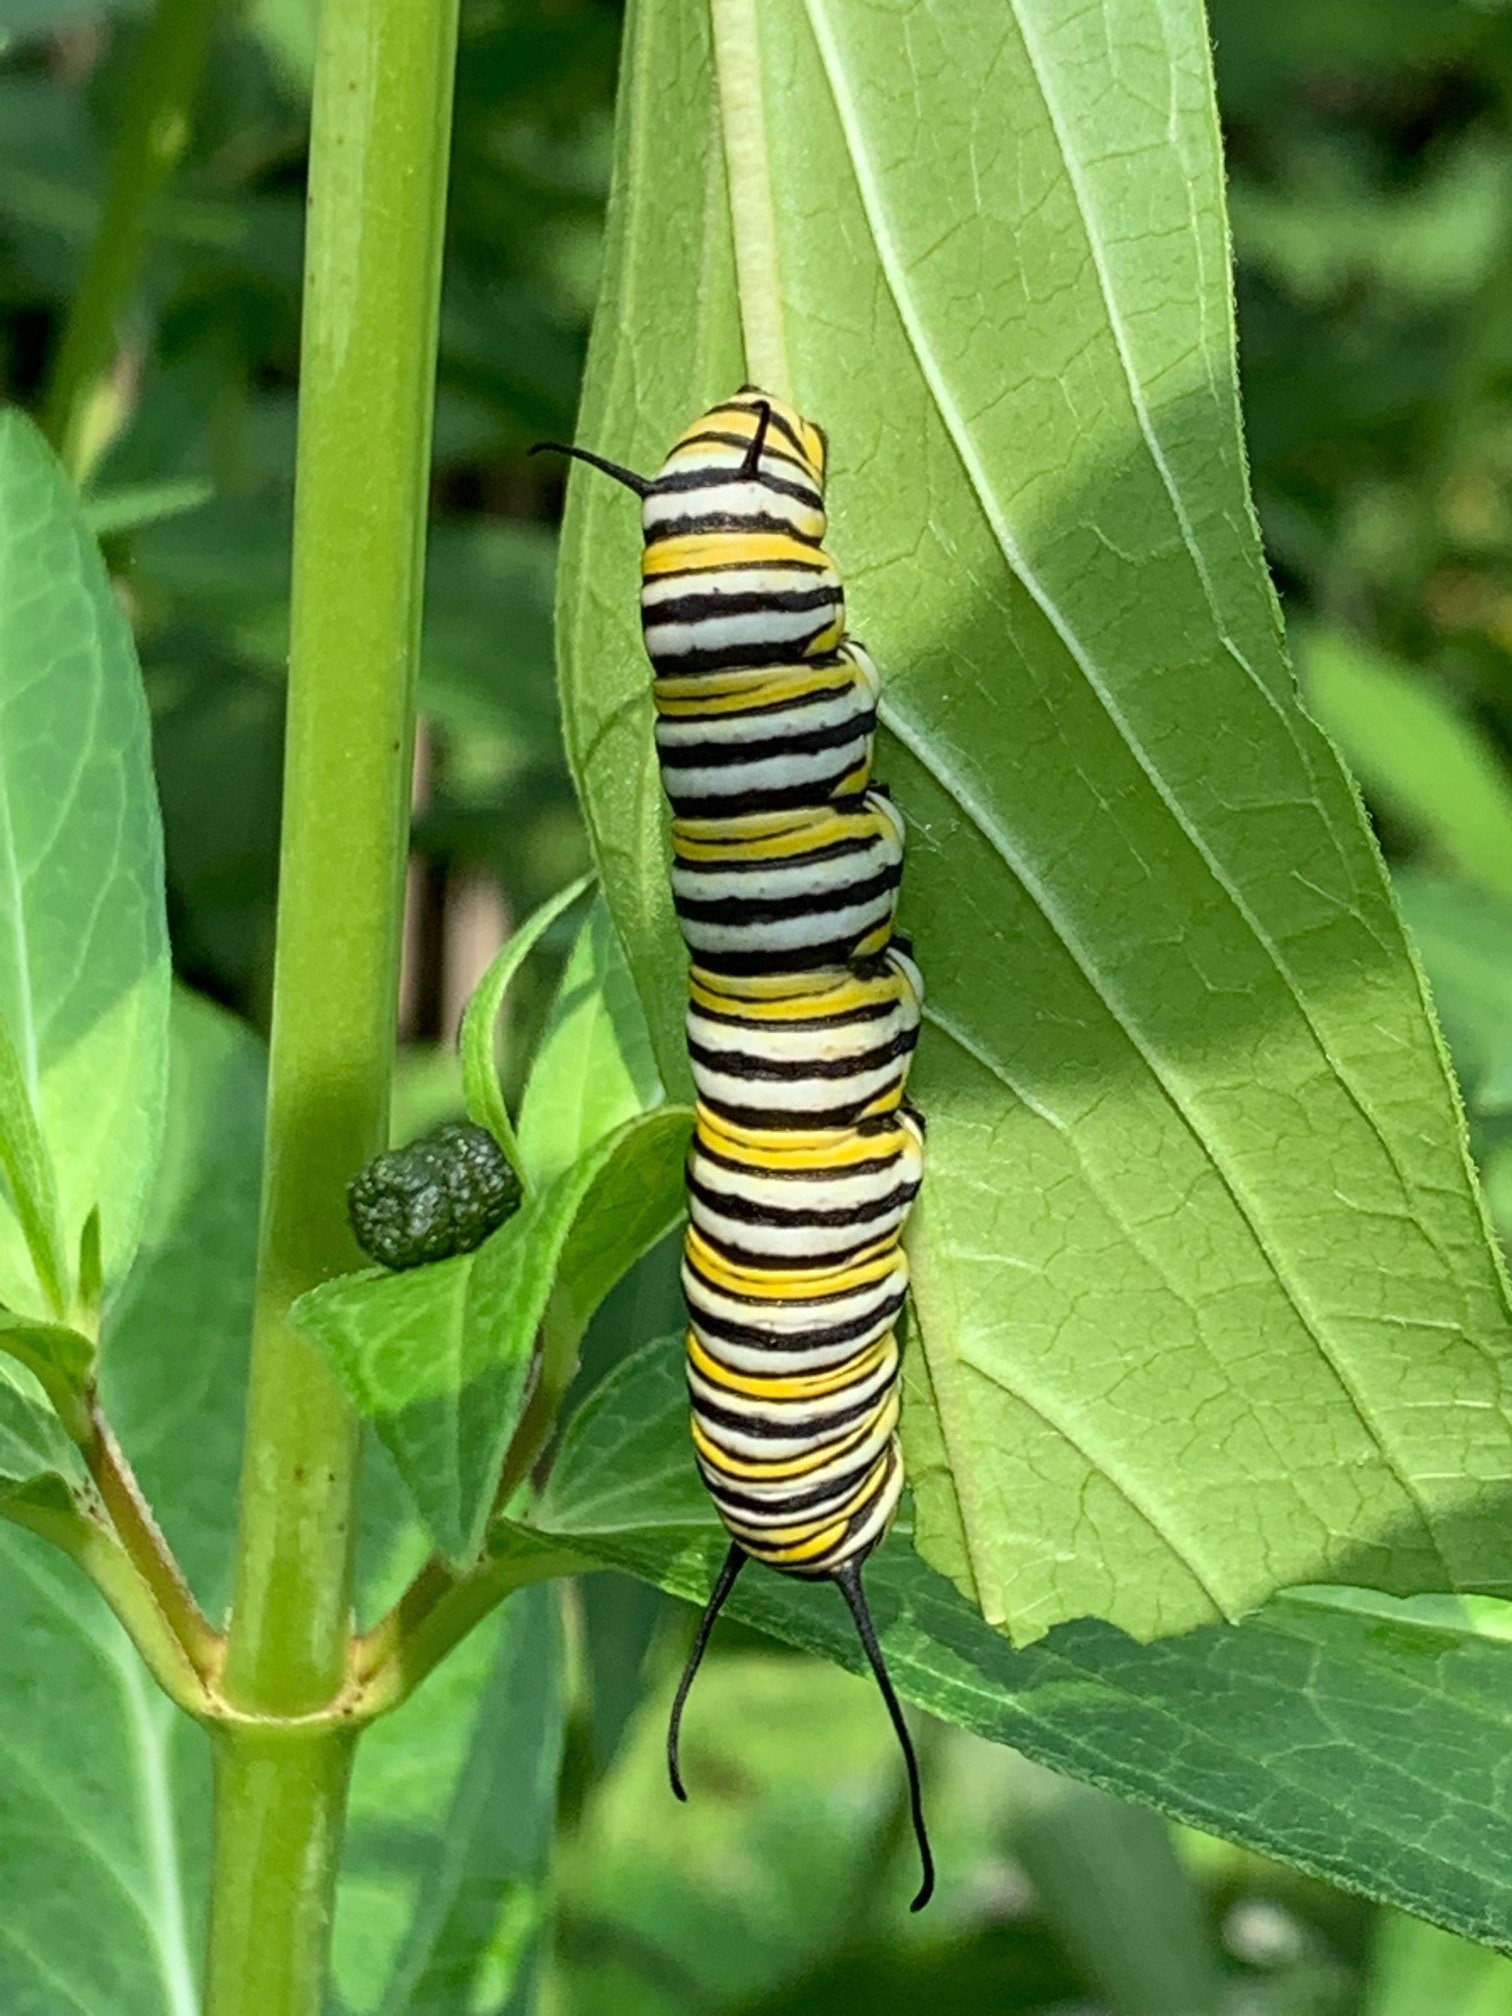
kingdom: Animalia
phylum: Arthropoda
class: Insecta
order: Lepidoptera
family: Nymphalidae
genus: Danaus
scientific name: Danaus plexippus
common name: Monarch
